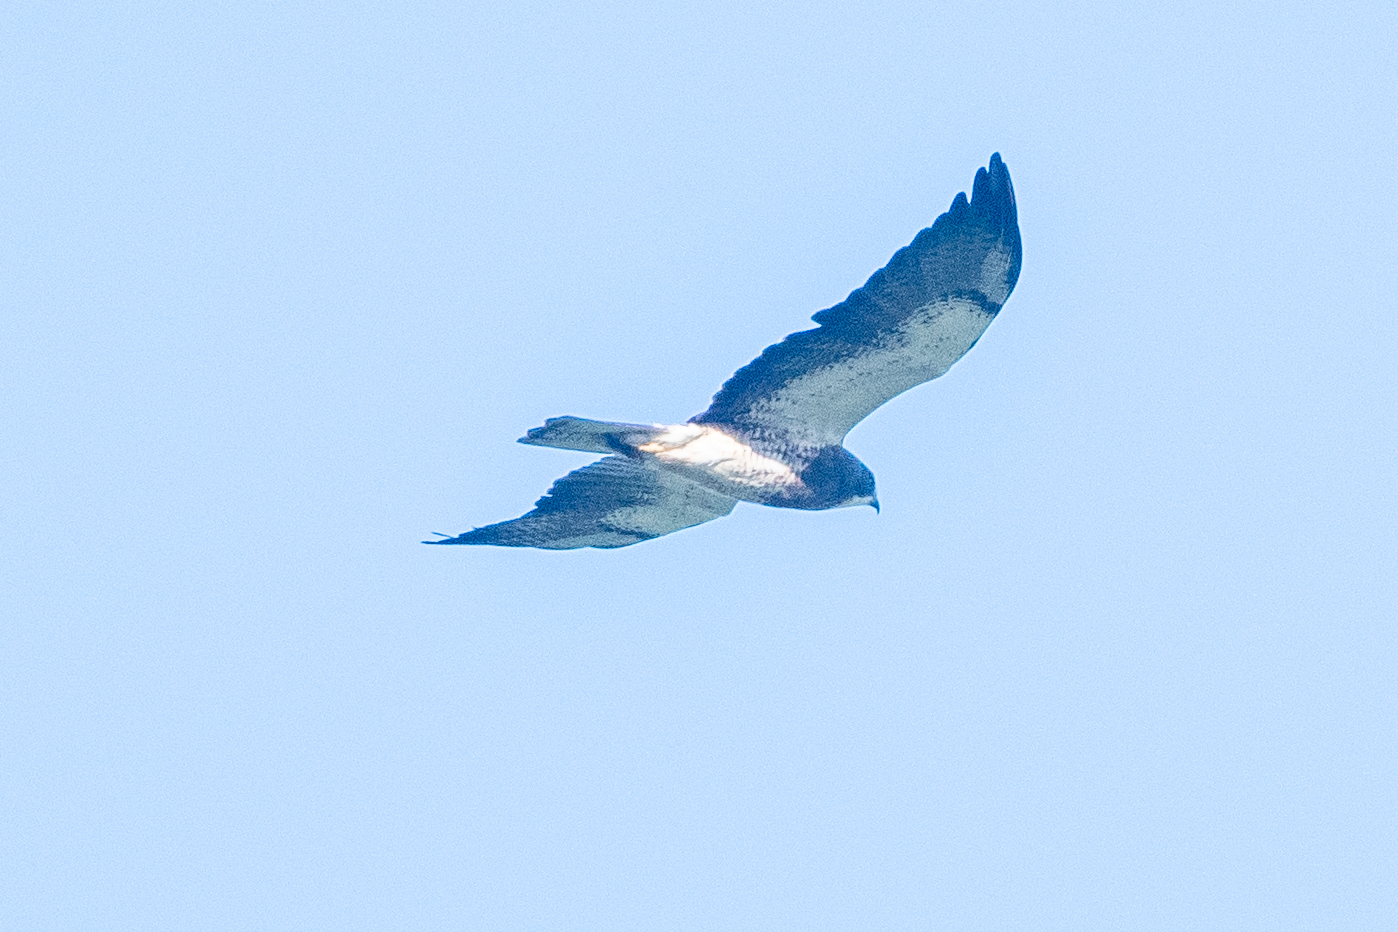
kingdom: Animalia
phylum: Chordata
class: Aves
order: Accipitriformes
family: Accipitridae
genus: Buteo
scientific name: Buteo swainsoni
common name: Swainson's hawk
